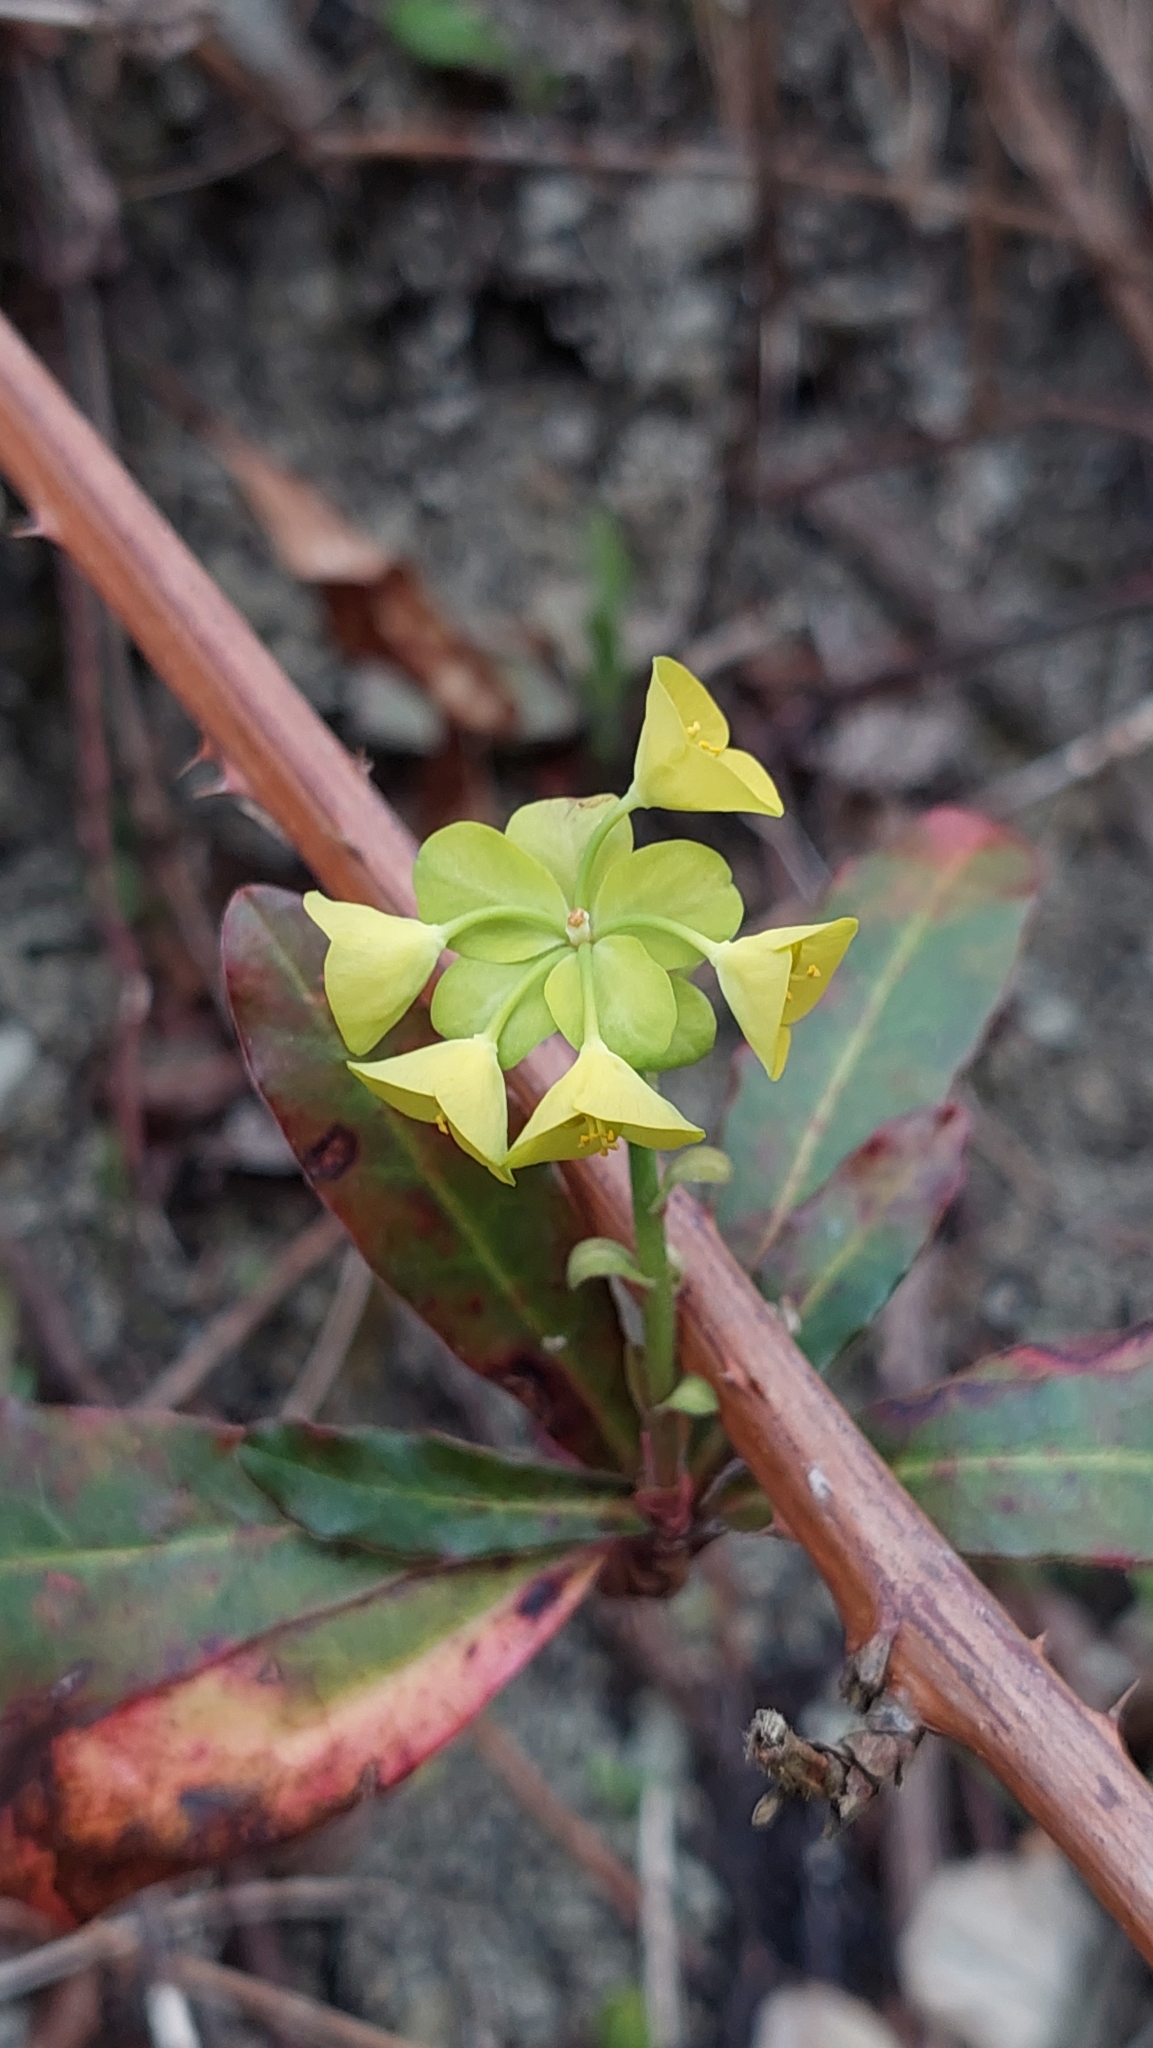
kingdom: Plantae
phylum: Tracheophyta
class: Magnoliopsida
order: Malpighiales
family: Euphorbiaceae
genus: Euphorbia
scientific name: Euphorbia amygdaloides
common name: Wood spurge
